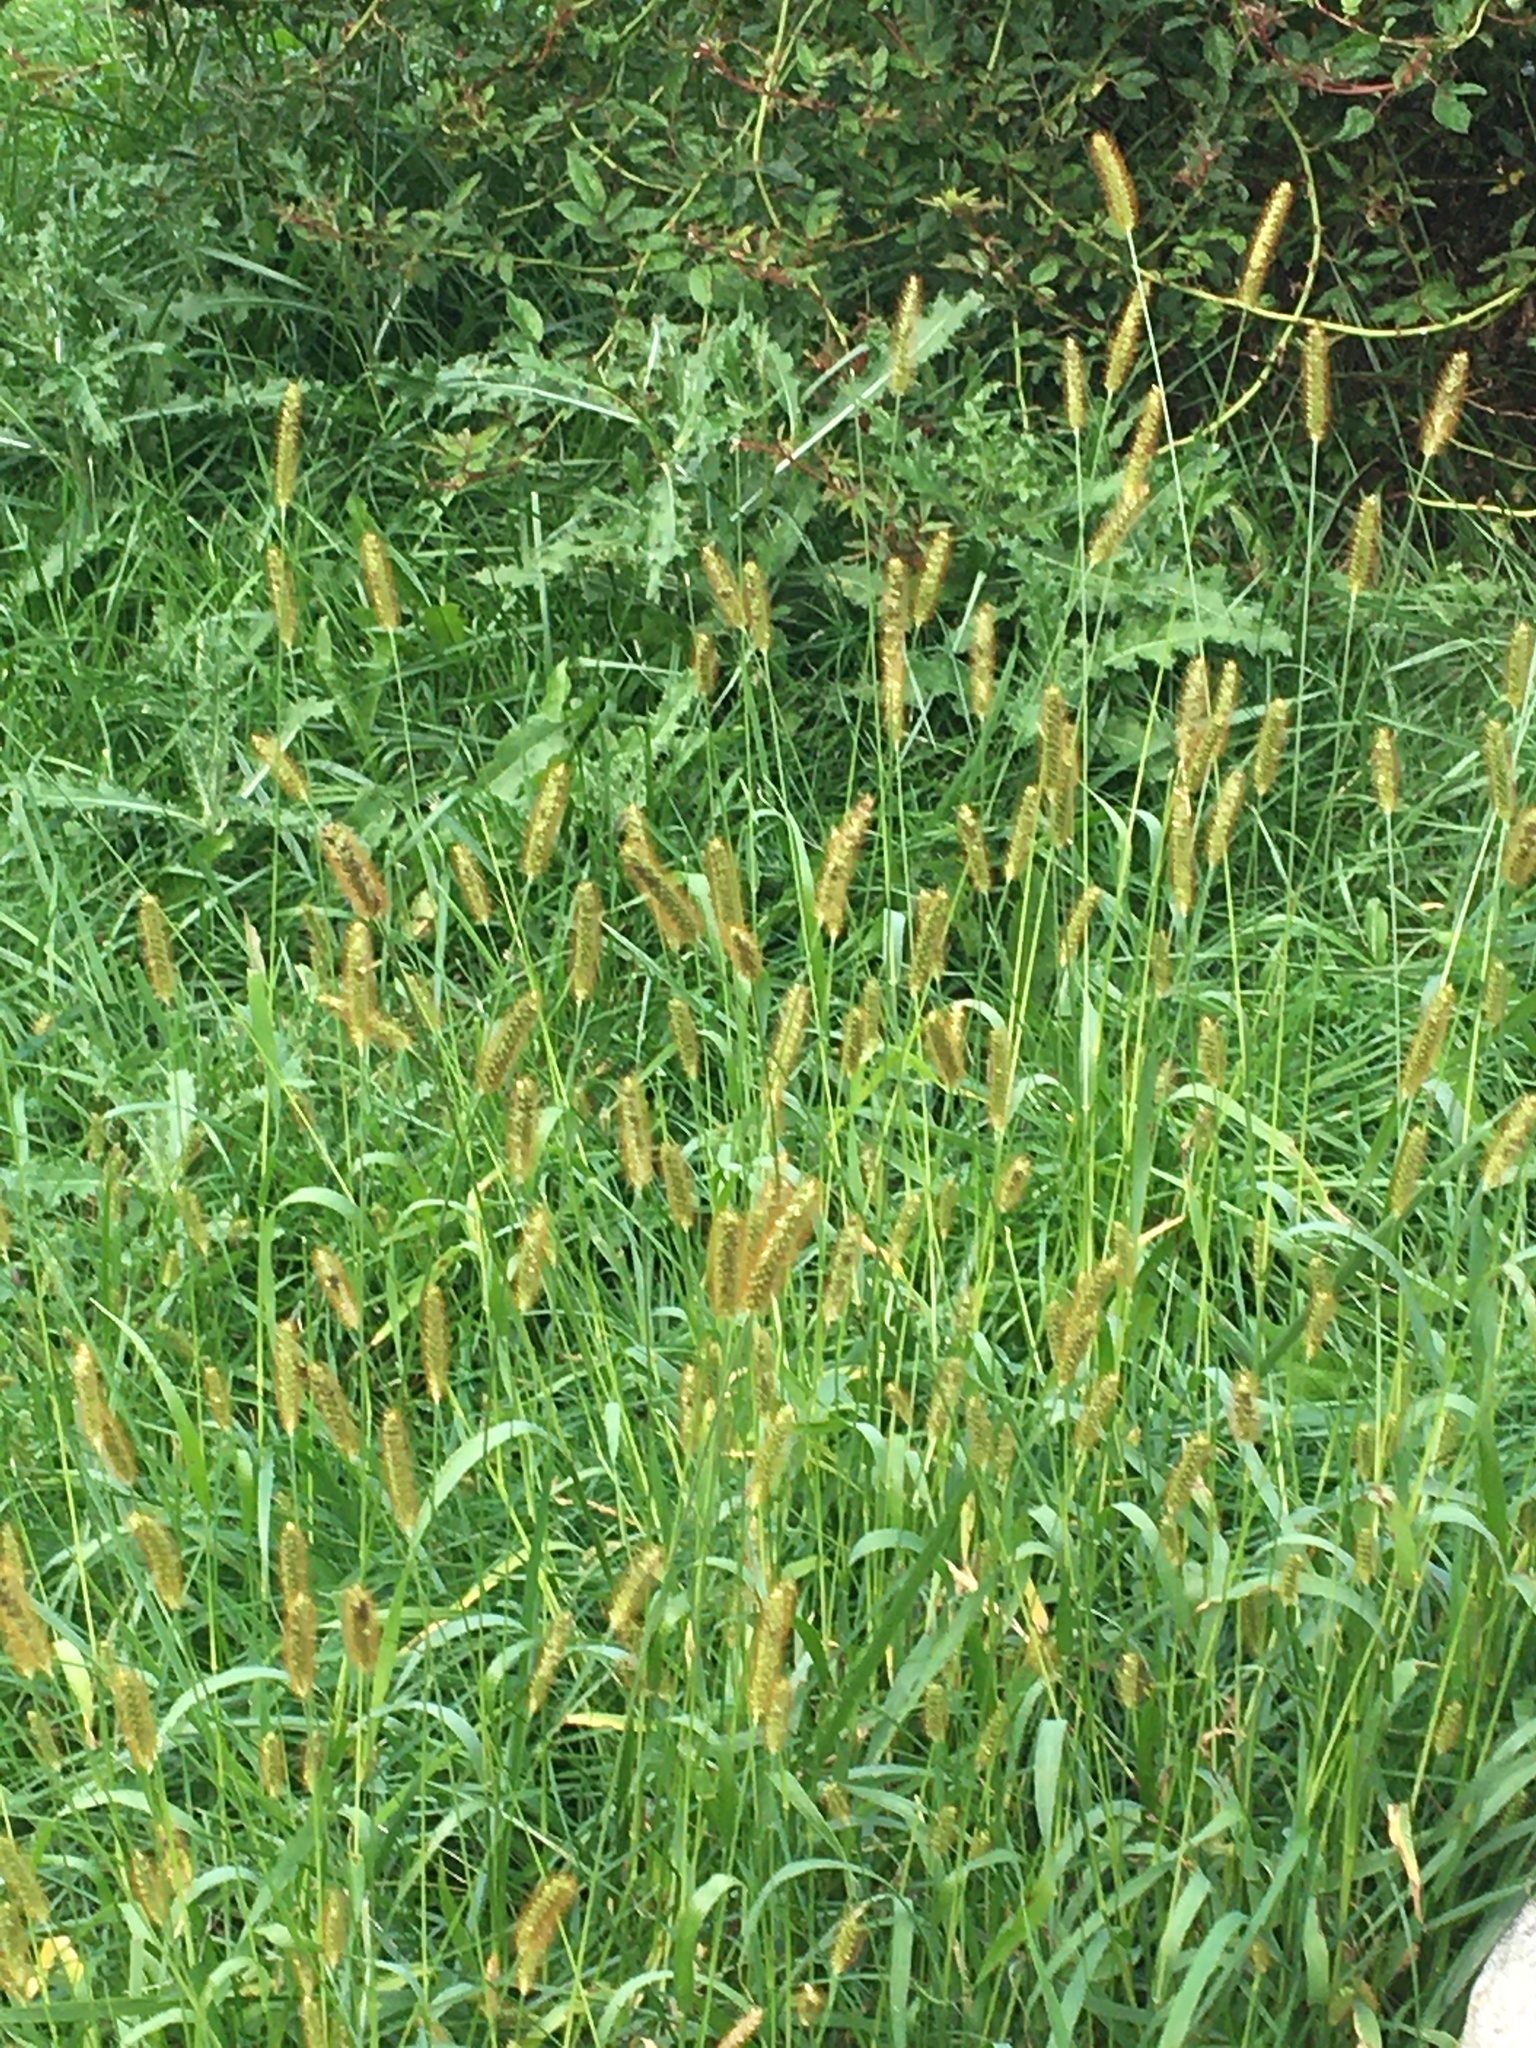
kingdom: Plantae
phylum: Tracheophyta
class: Liliopsida
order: Poales
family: Poaceae
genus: Setaria
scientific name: Setaria pumila
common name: Yellow bristle-grass
